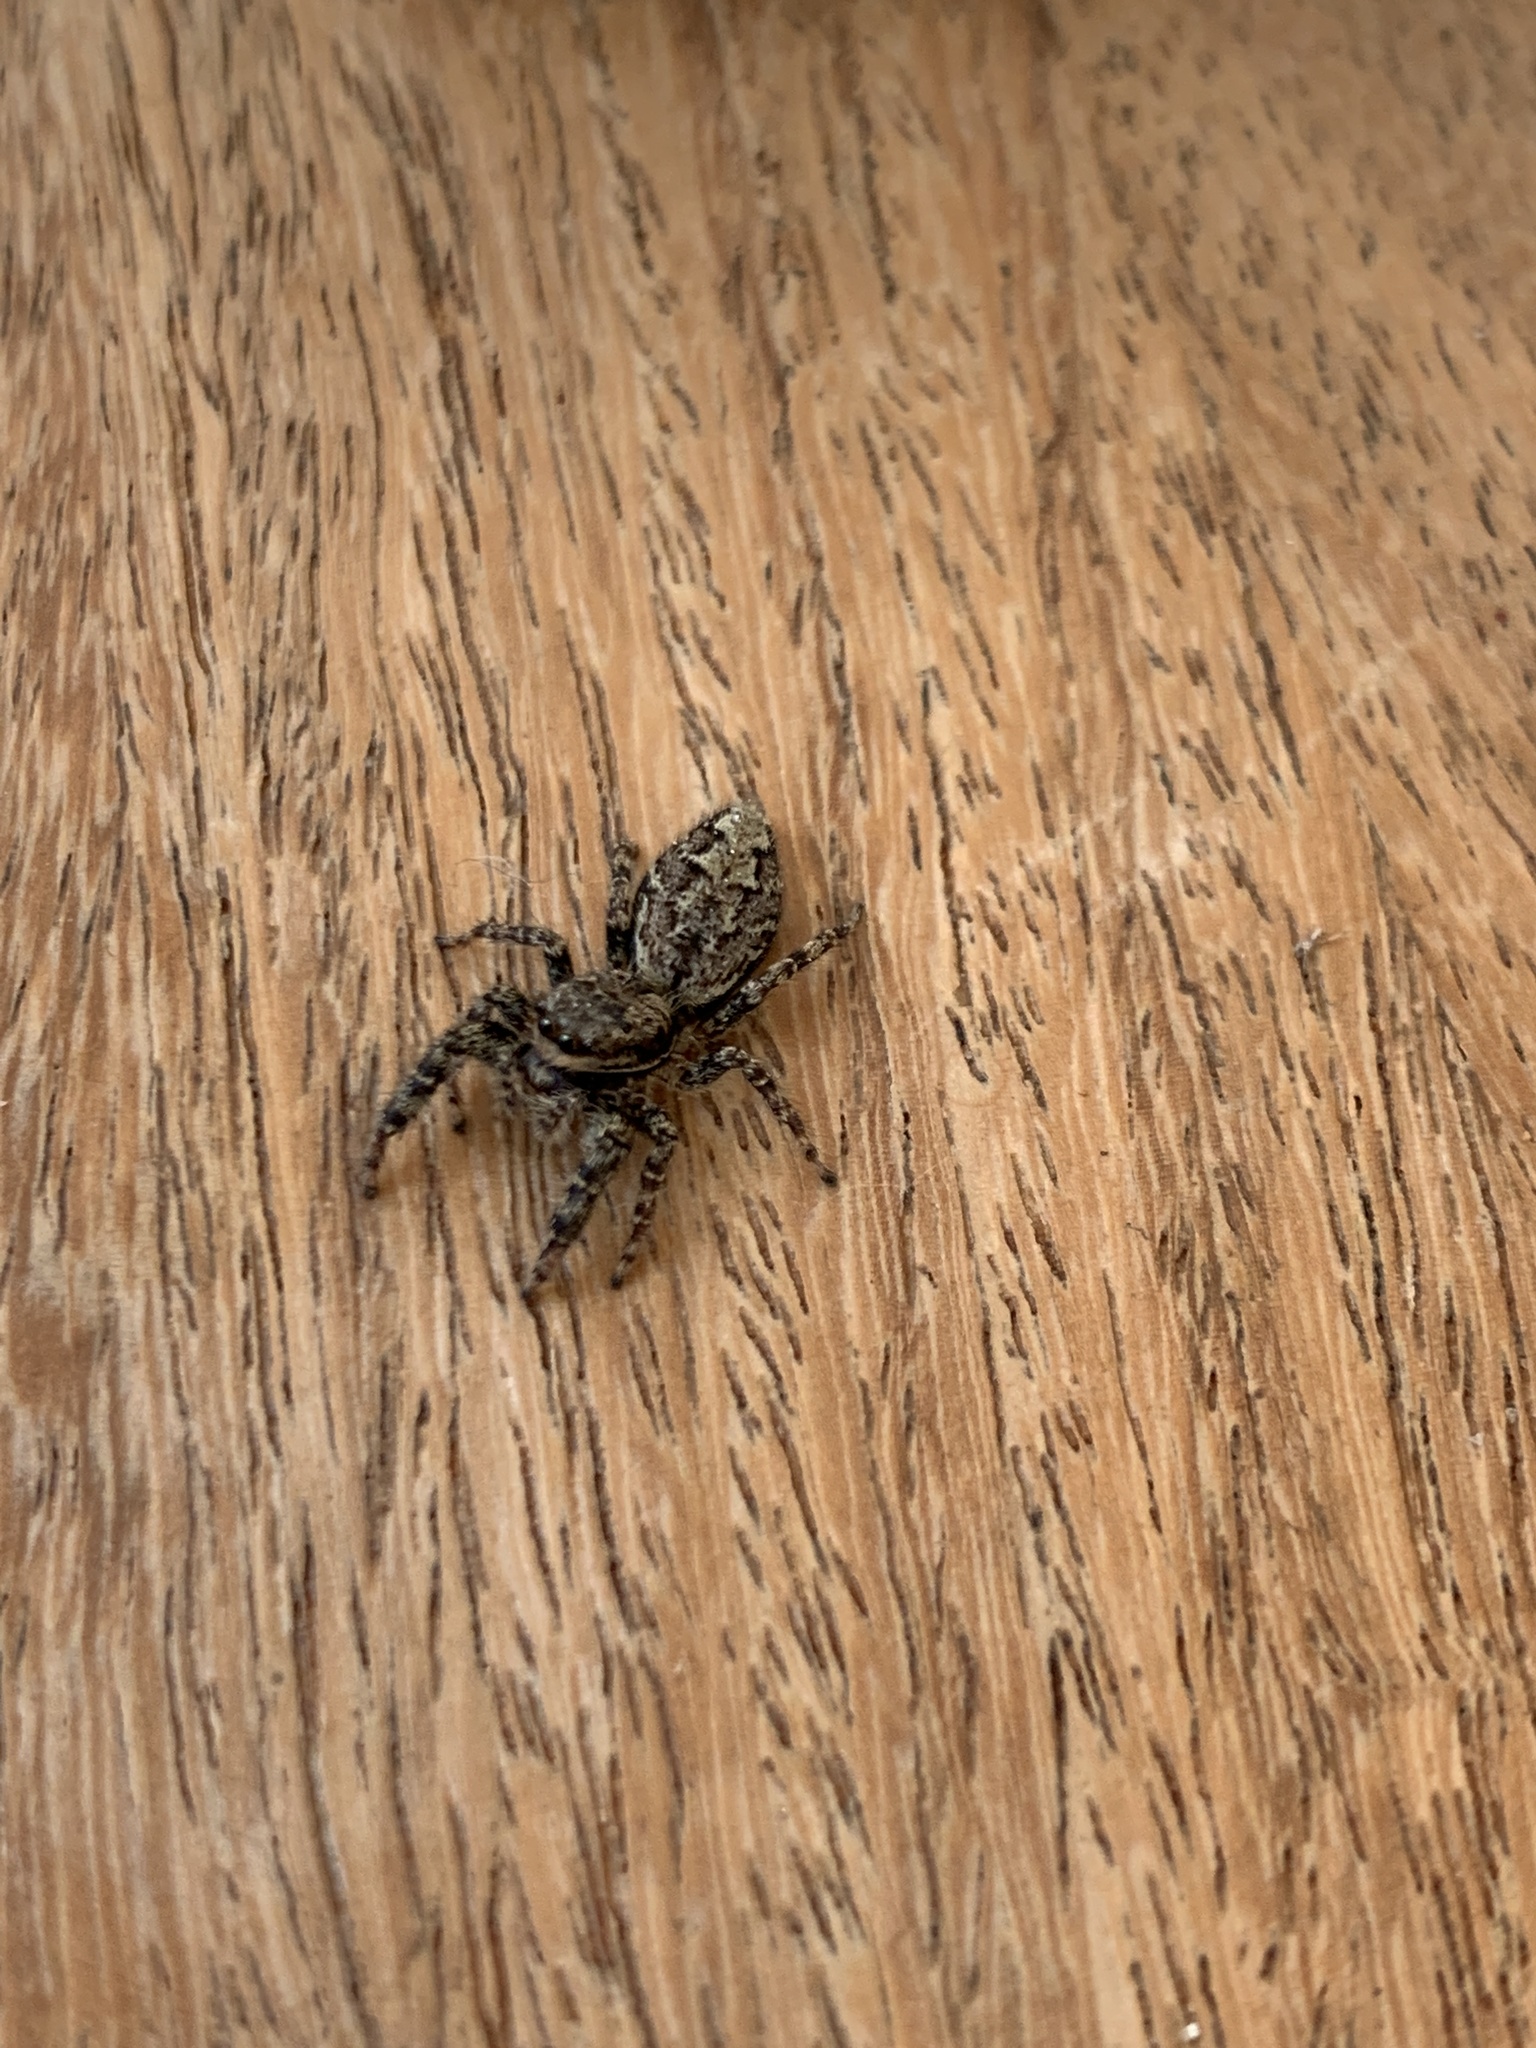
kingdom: Animalia
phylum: Arthropoda
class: Arachnida
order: Araneae
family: Salticidae
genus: Marpissa
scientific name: Marpissa muscosa
